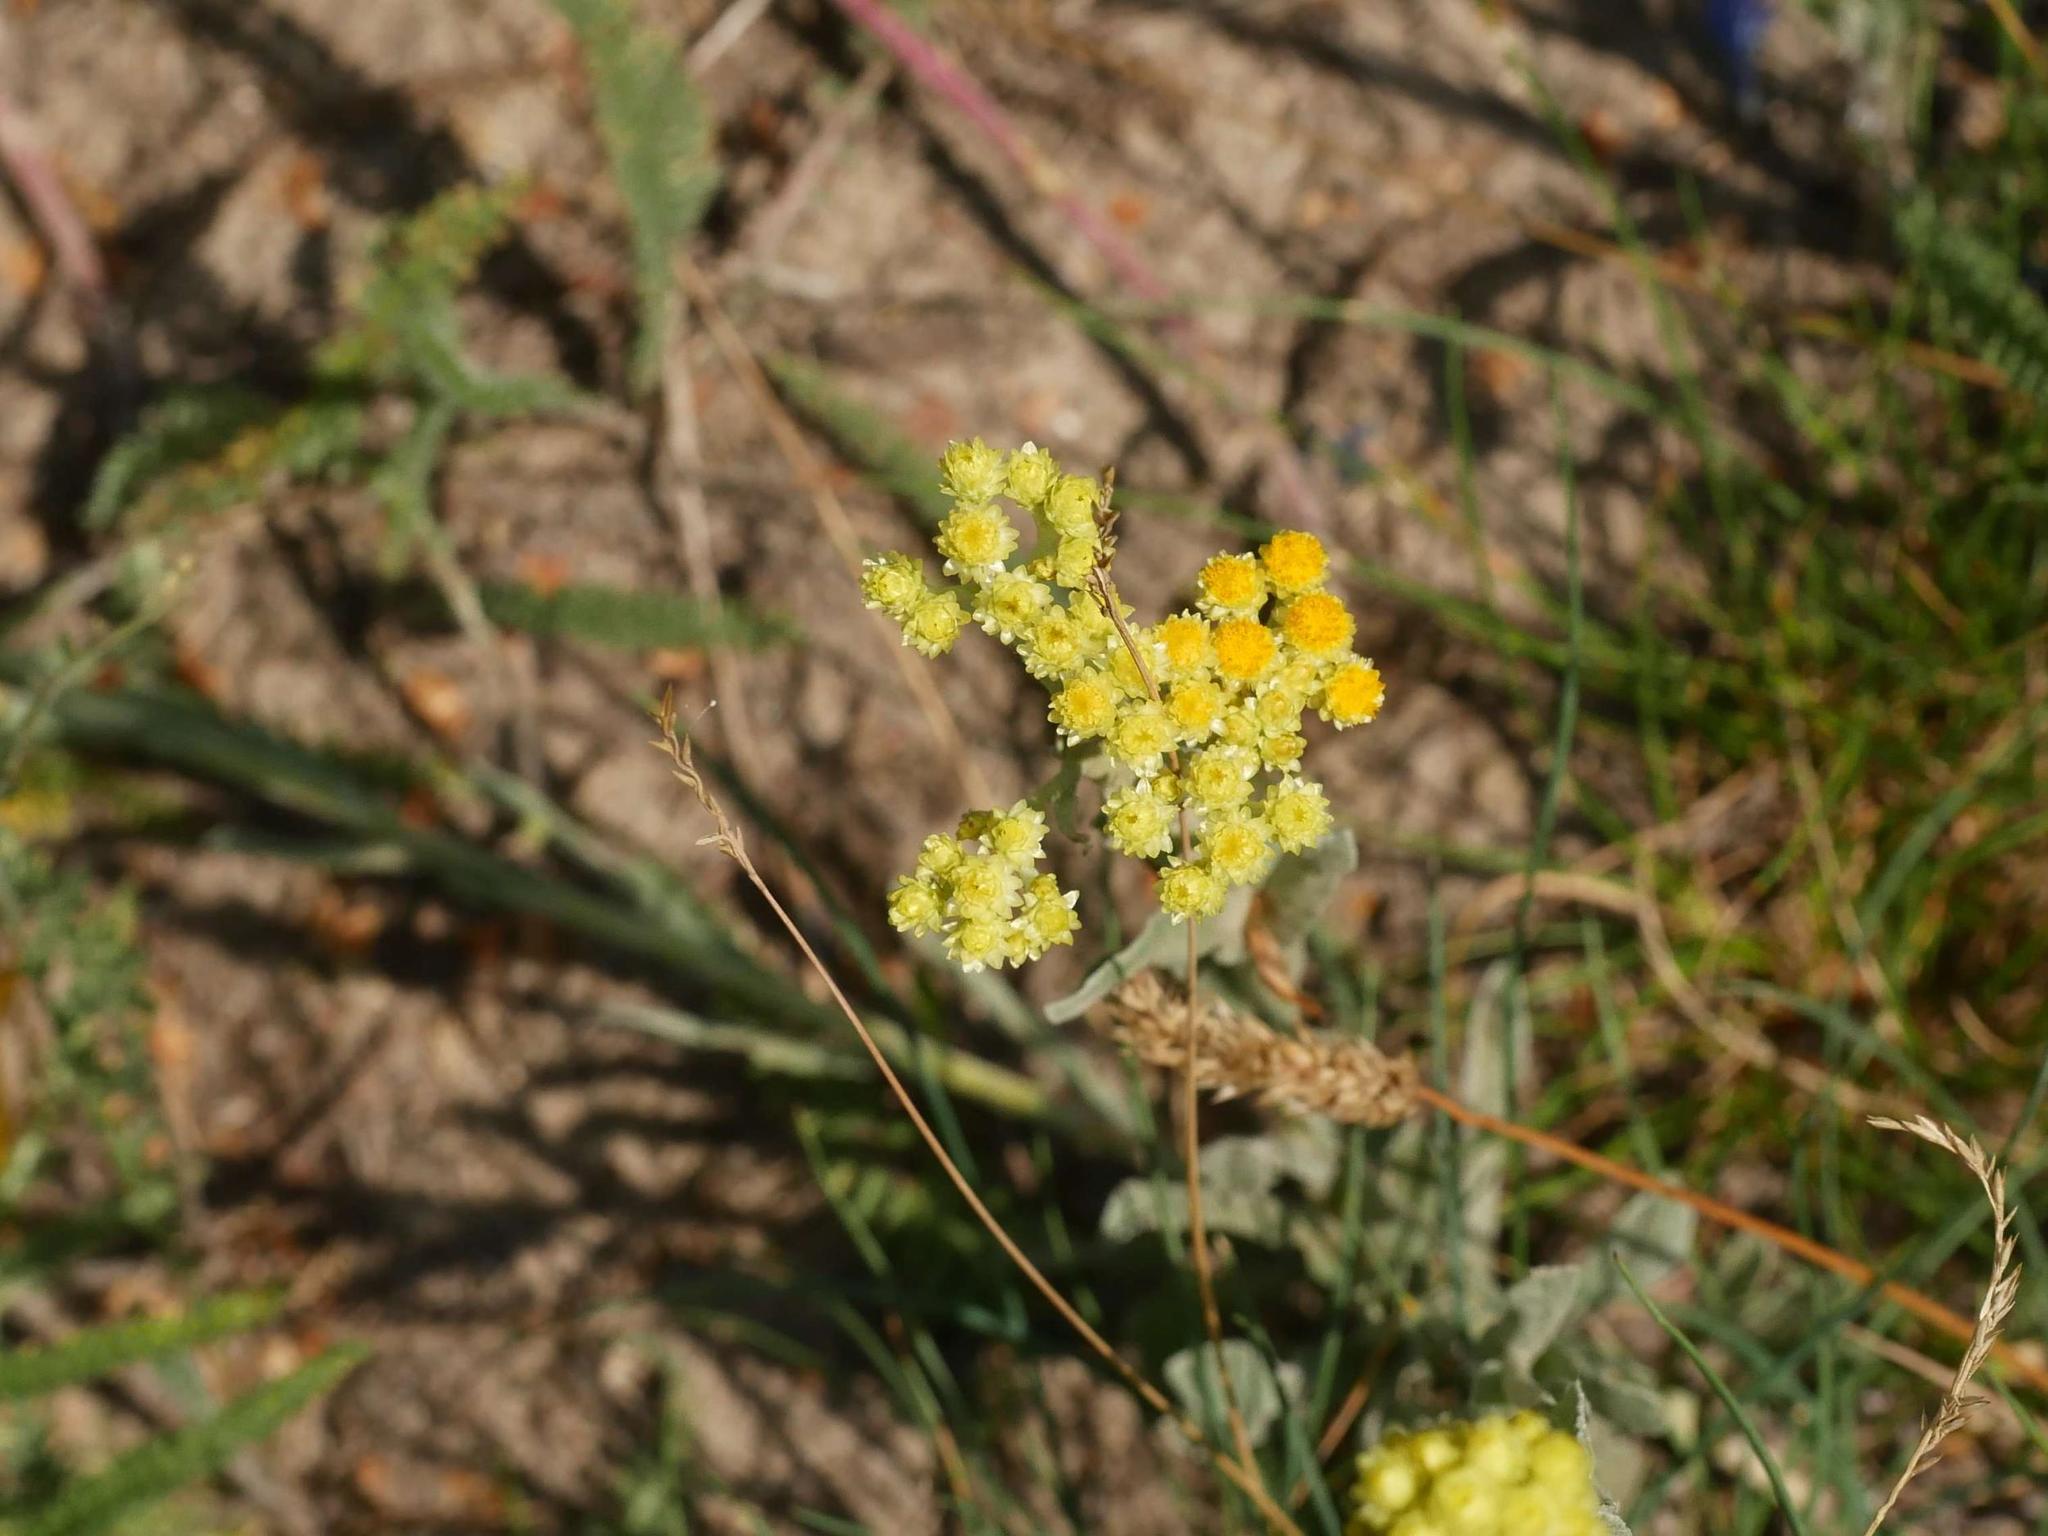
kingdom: Plantae
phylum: Tracheophyta
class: Magnoliopsida
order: Asterales
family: Asteraceae
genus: Helichrysum
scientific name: Helichrysum arenarium
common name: Strawflower
